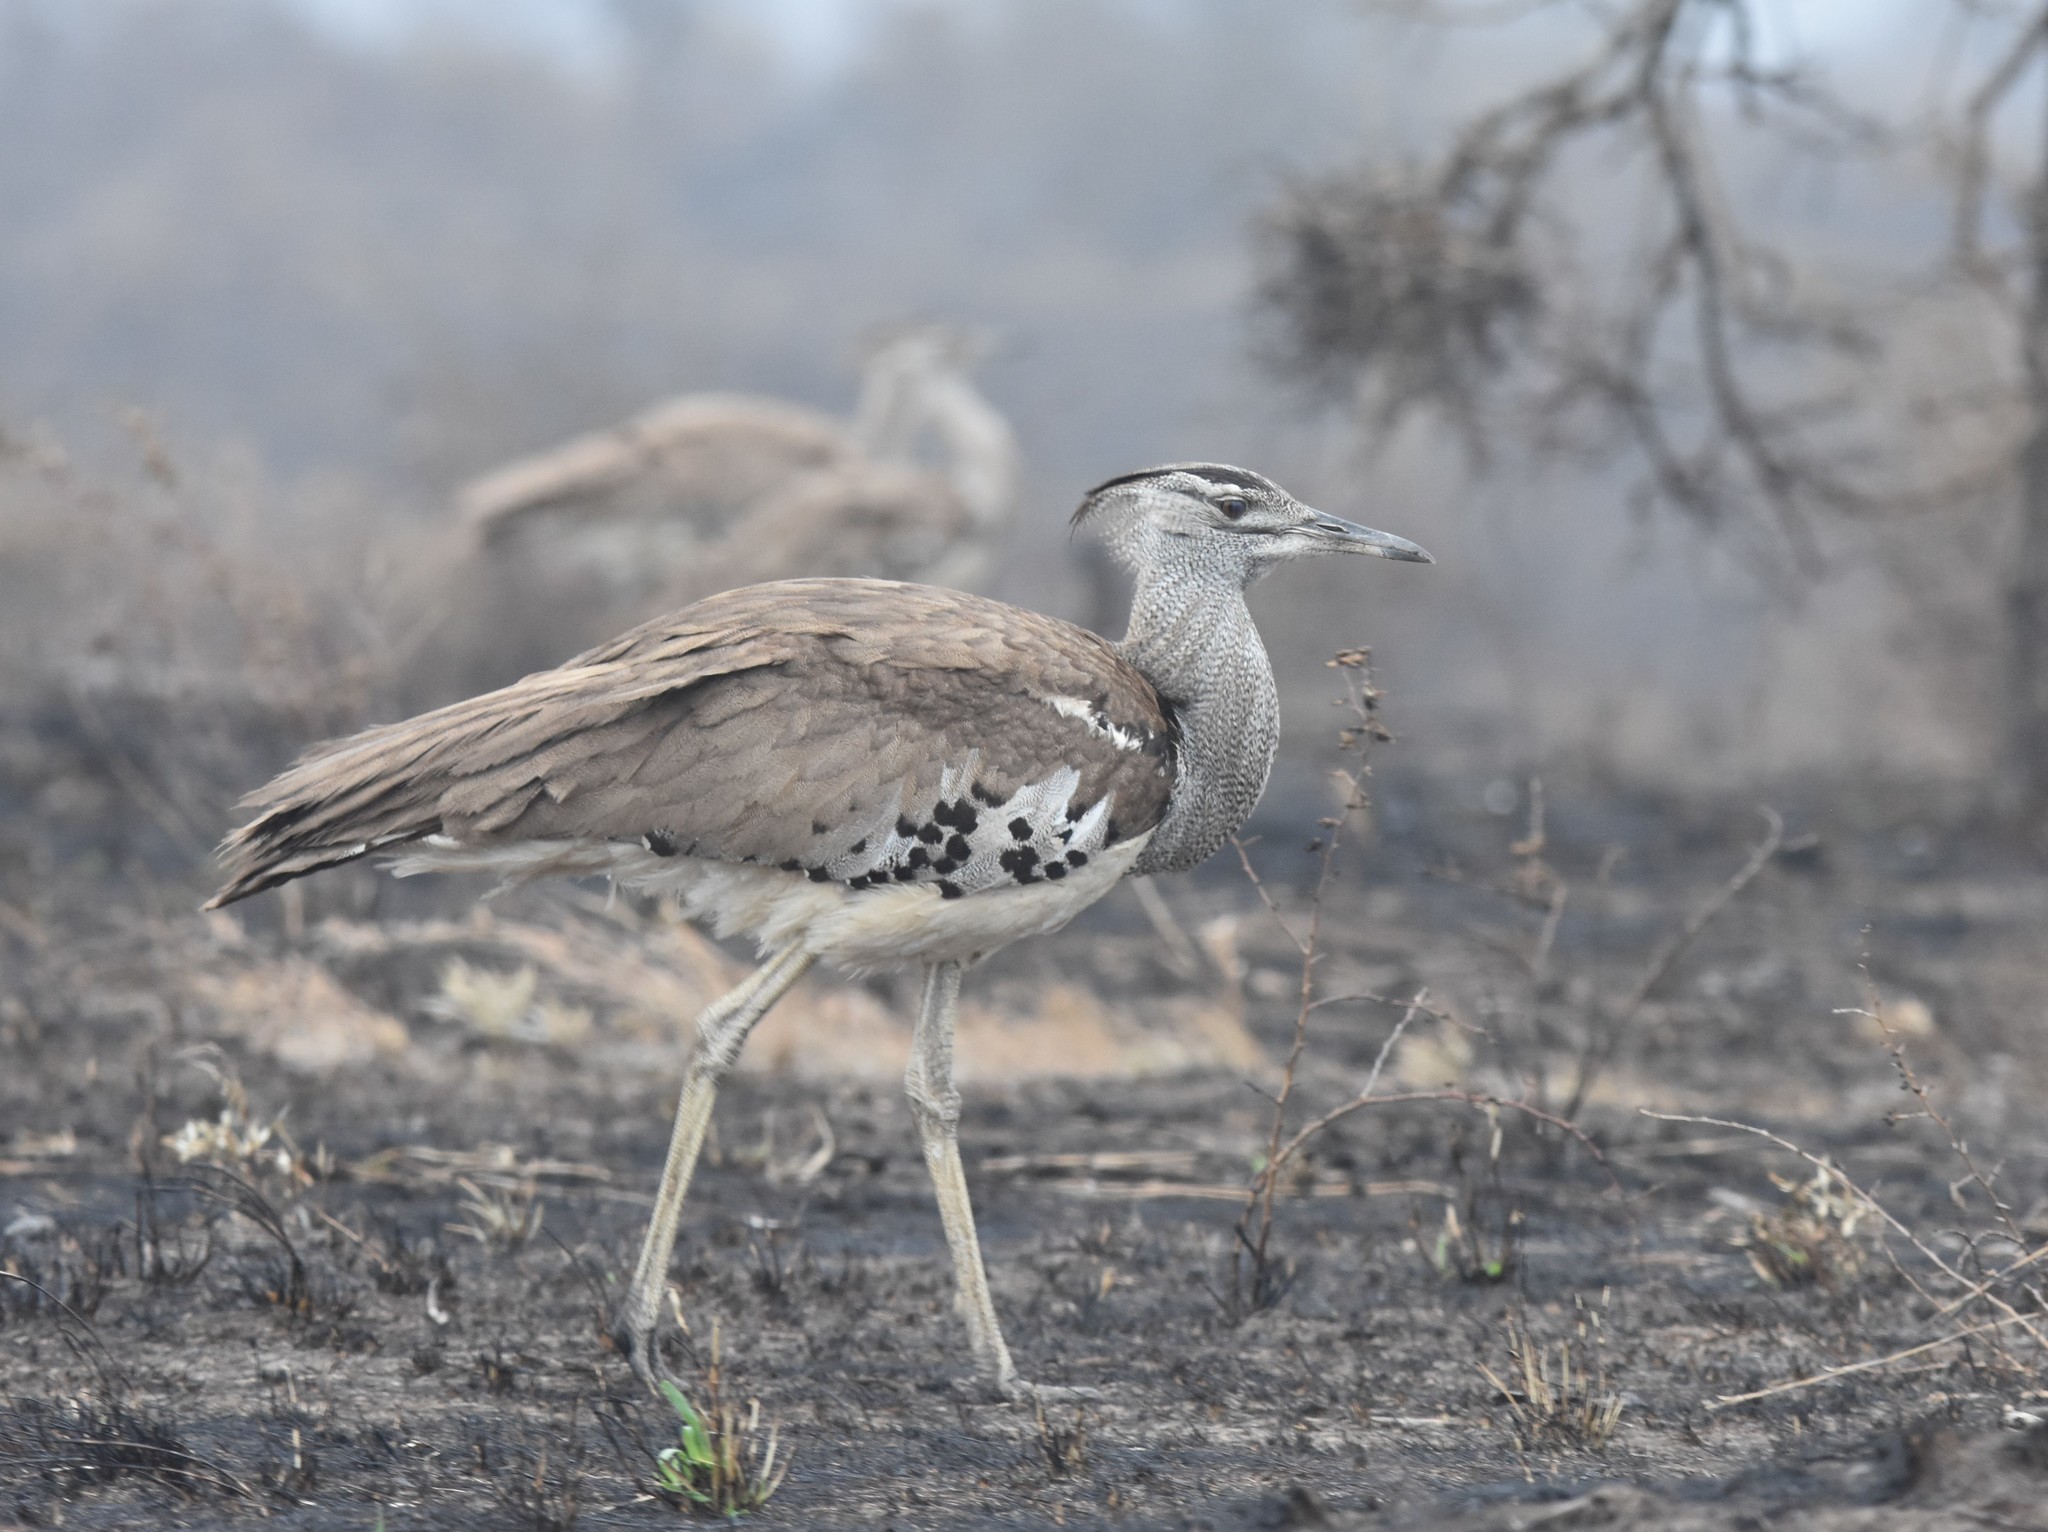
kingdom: Animalia
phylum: Chordata
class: Aves
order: Otidiformes
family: Otididae
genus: Ardeotis
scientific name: Ardeotis kori
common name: Kori bustard
